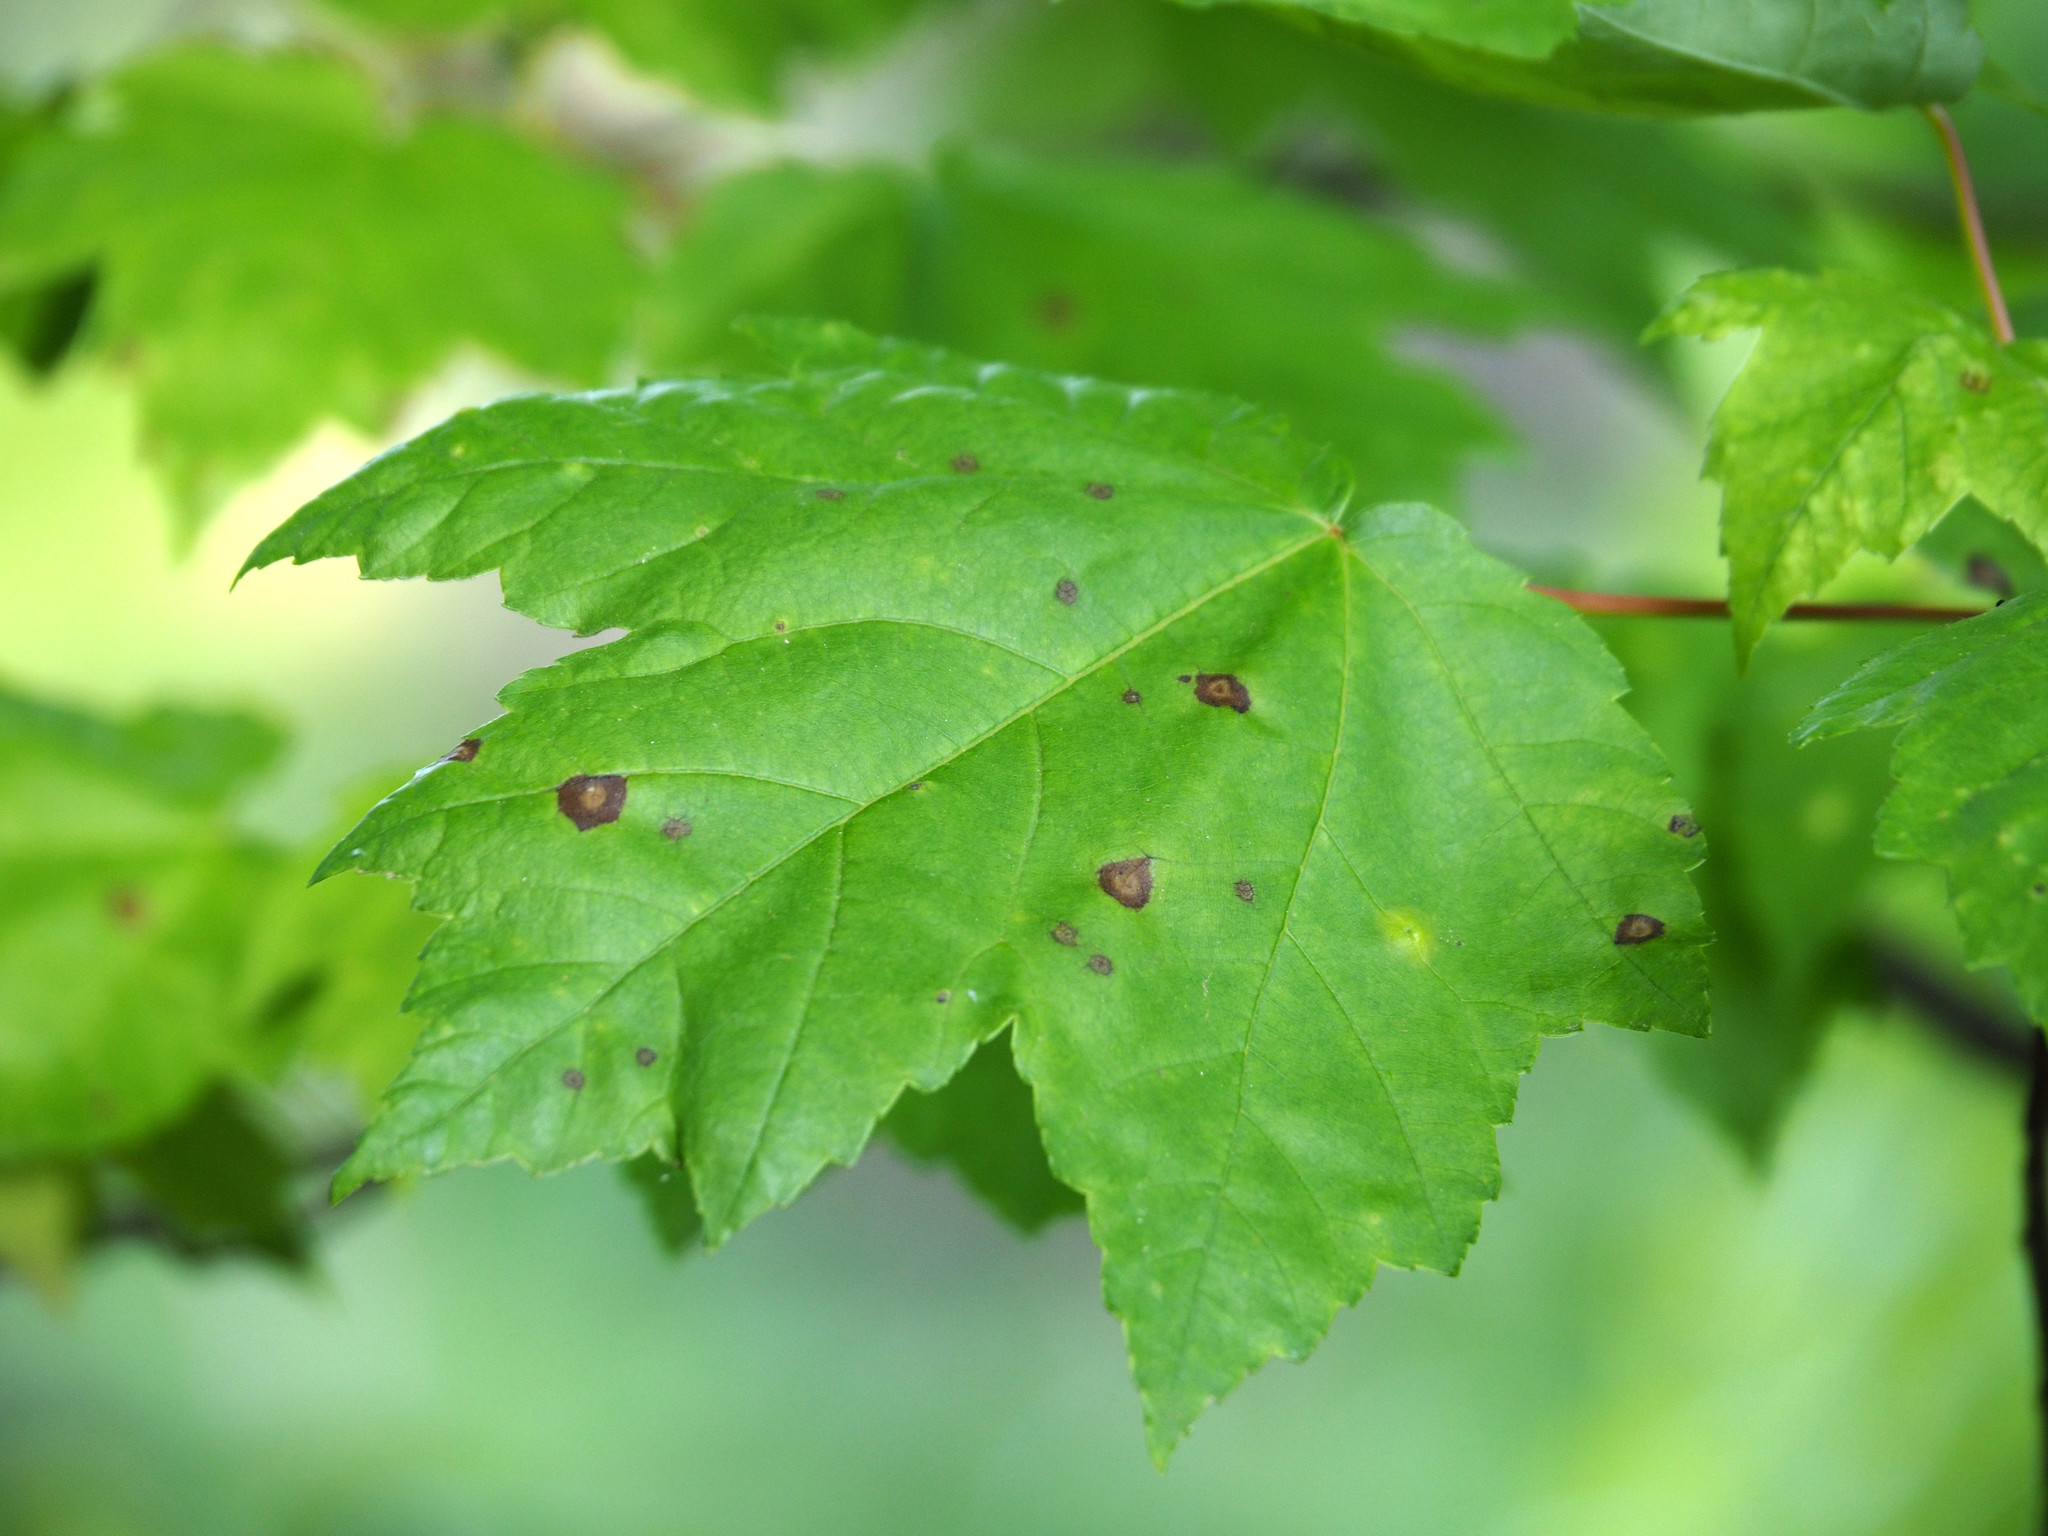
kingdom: Fungi
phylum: Ascomycota
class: Dothideomycetes
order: Botryosphaeriales
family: Phyllostictaceae
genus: Phyllosticta
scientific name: Phyllosticta minima
